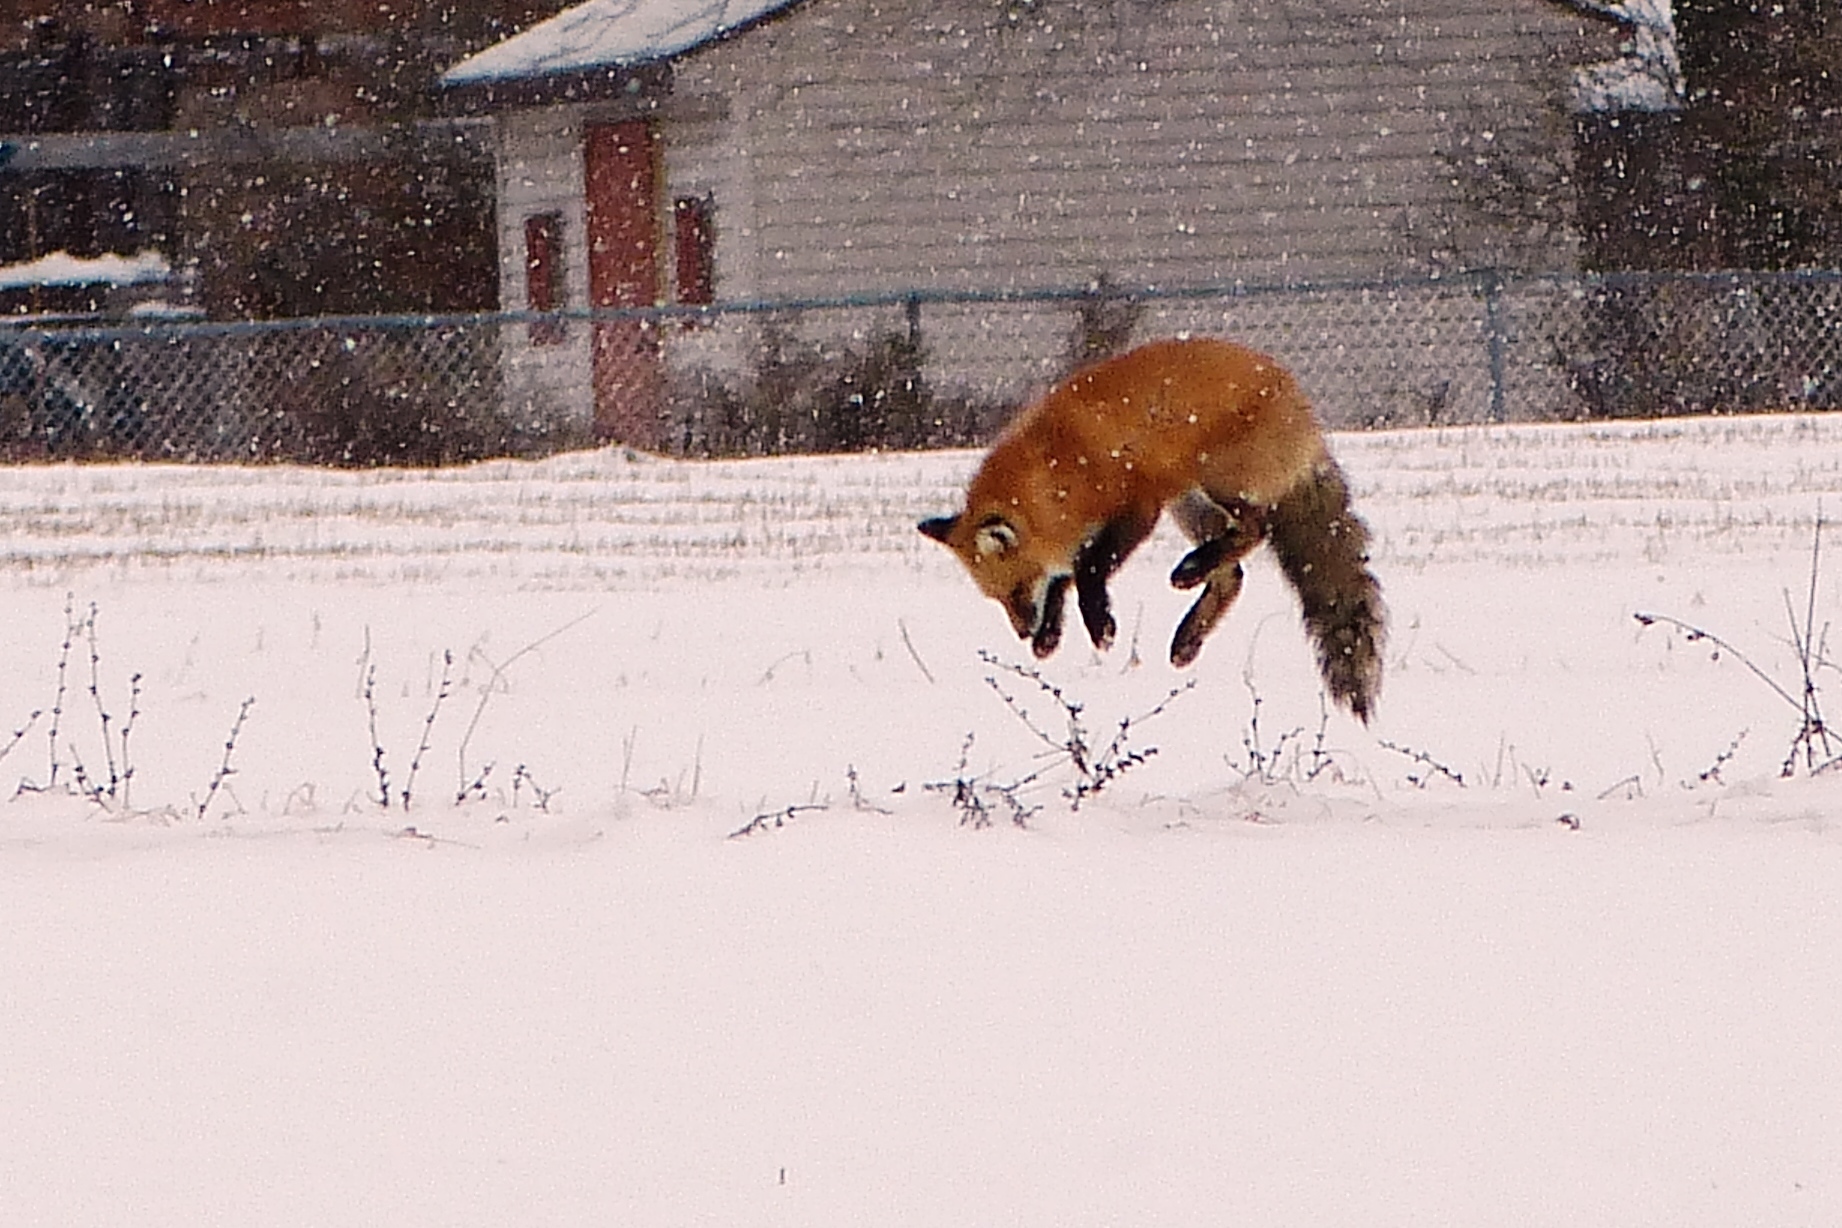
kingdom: Animalia
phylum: Chordata
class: Mammalia
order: Carnivora
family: Canidae
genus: Vulpes
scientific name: Vulpes vulpes
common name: Red fox
